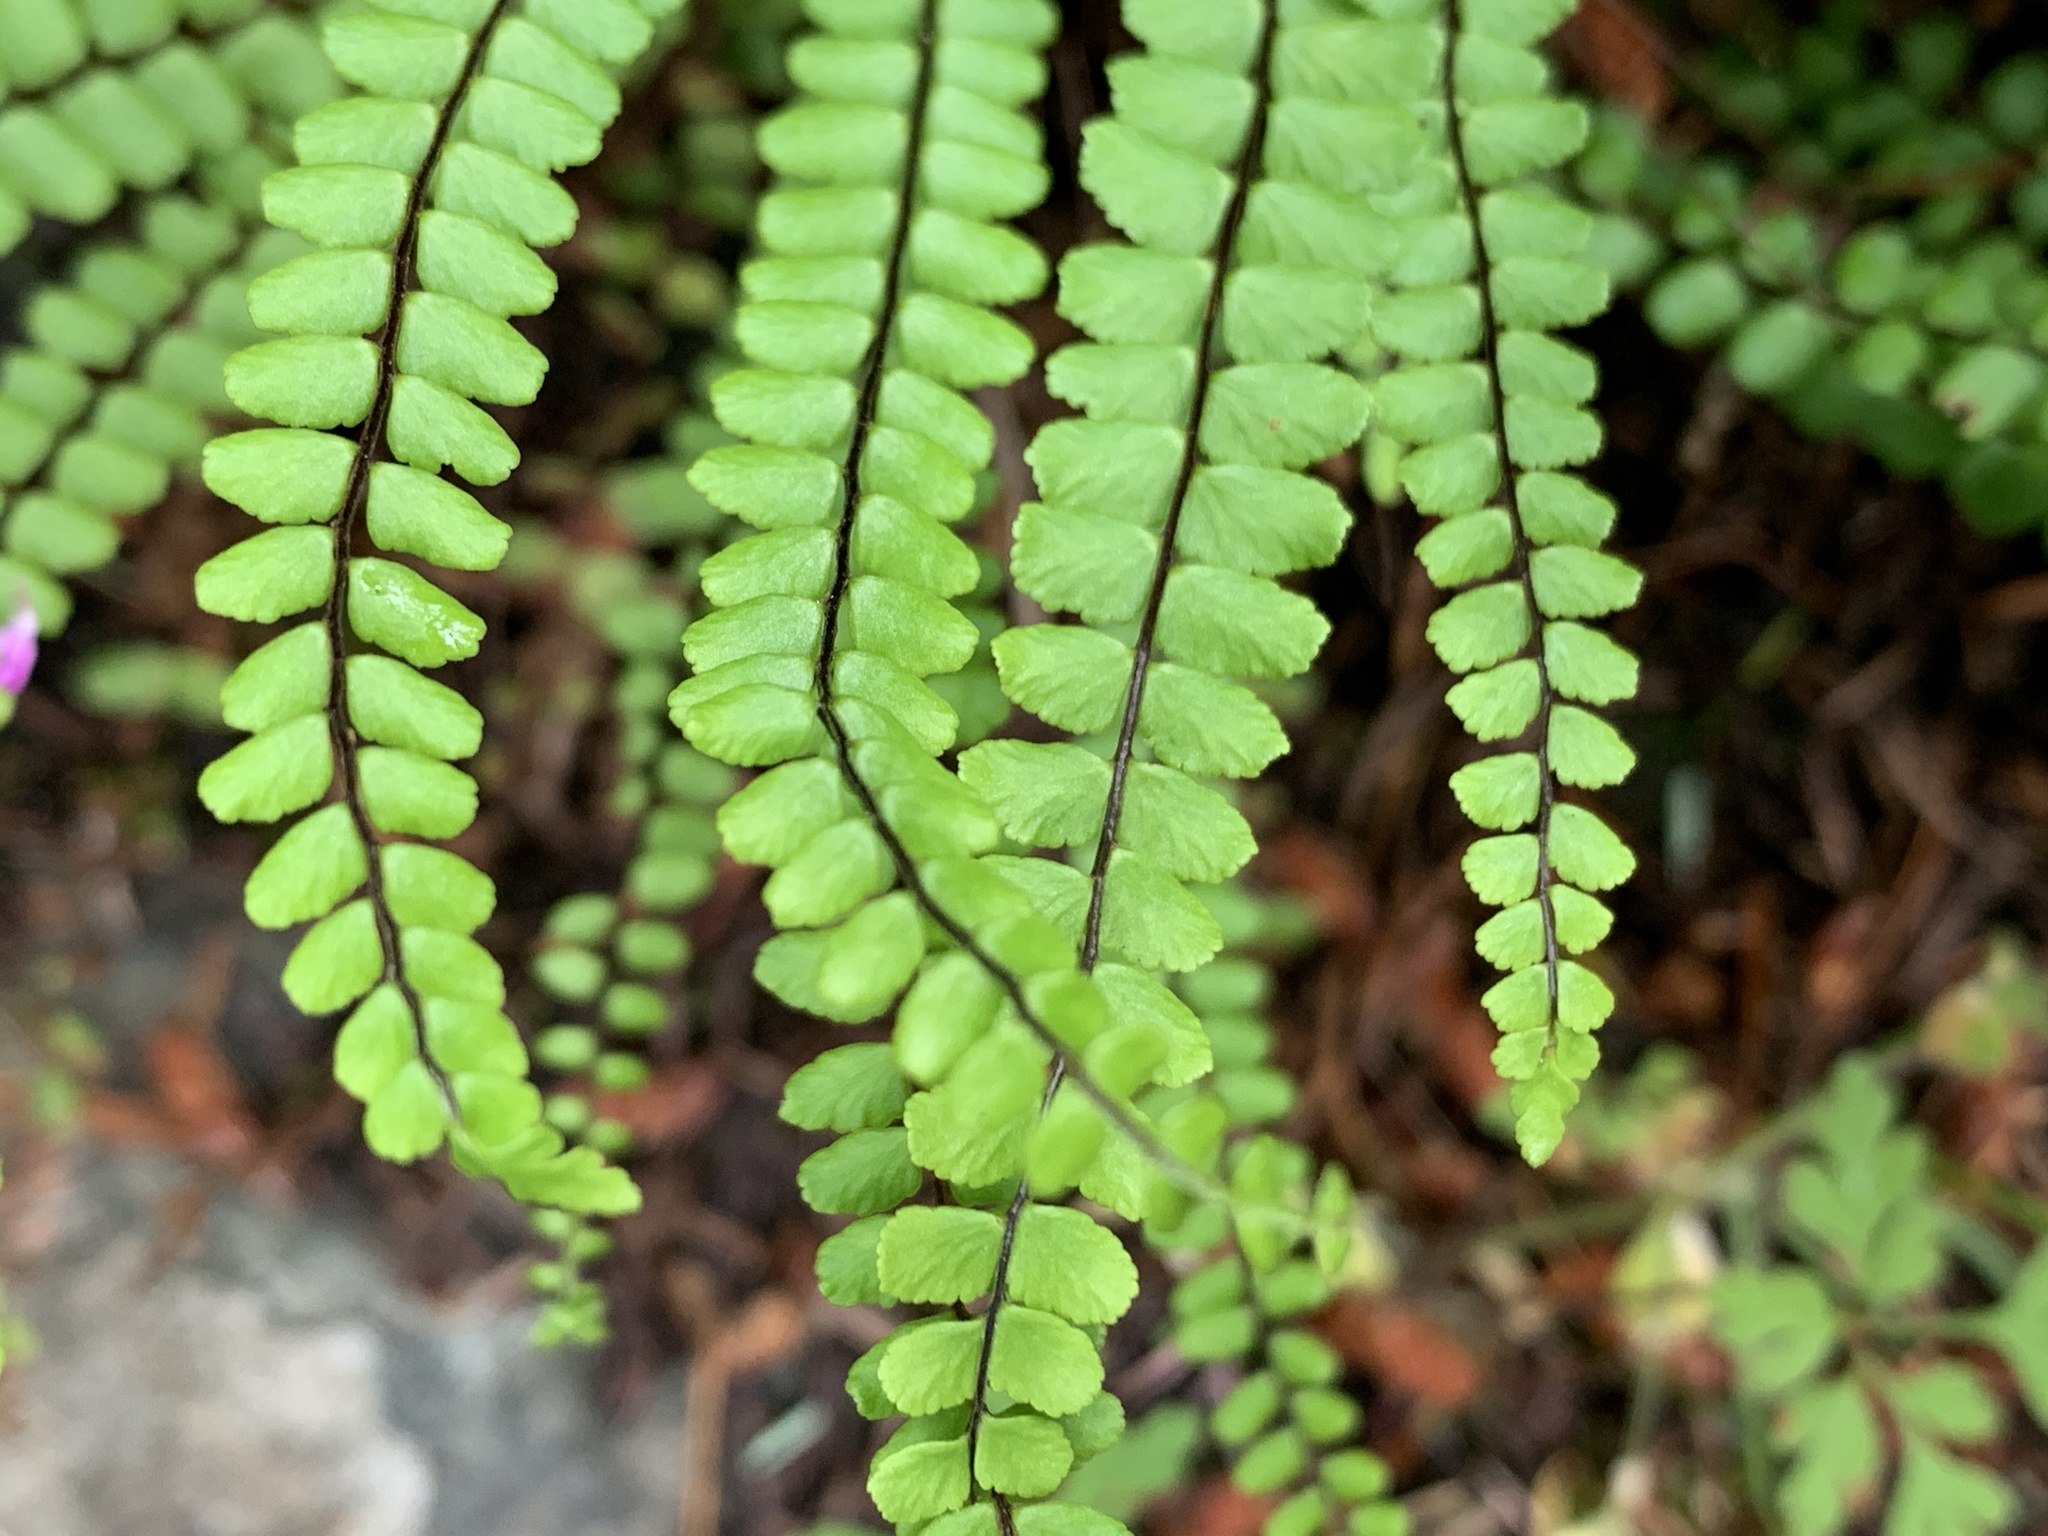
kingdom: Plantae
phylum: Tracheophyta
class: Polypodiopsida
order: Polypodiales
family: Aspleniaceae
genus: Asplenium
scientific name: Asplenium trichomanes
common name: Maidenhair spleenwort
